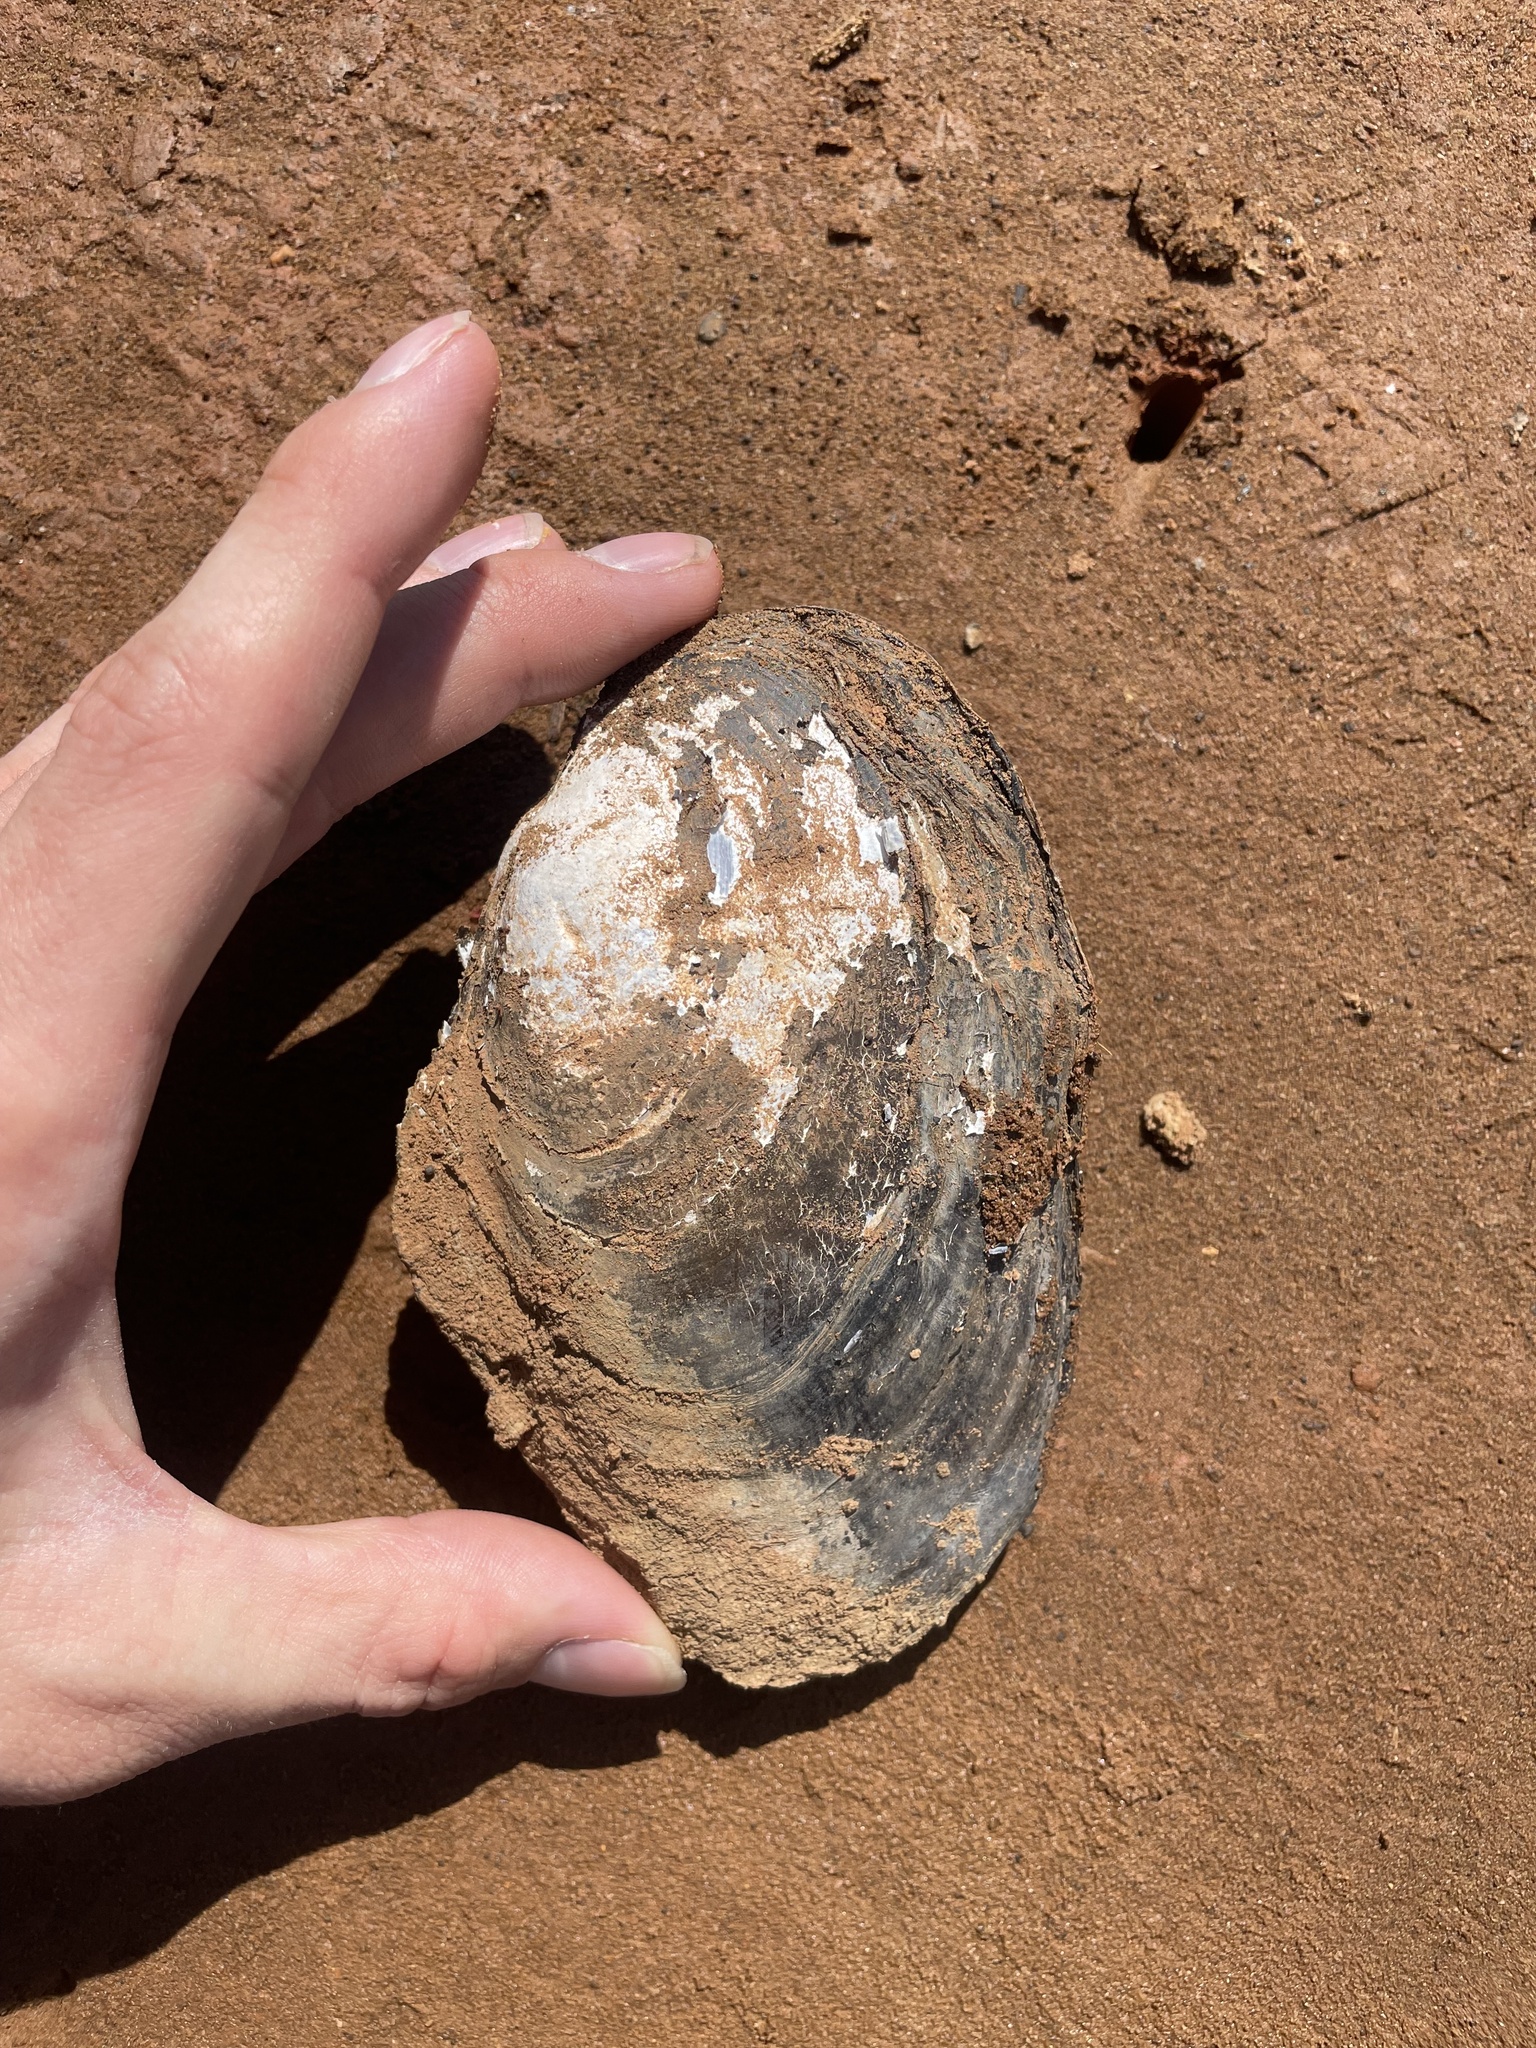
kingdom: Animalia
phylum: Mollusca
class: Bivalvia
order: Unionida
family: Unionidae
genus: Potamilus
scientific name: Potamilus
